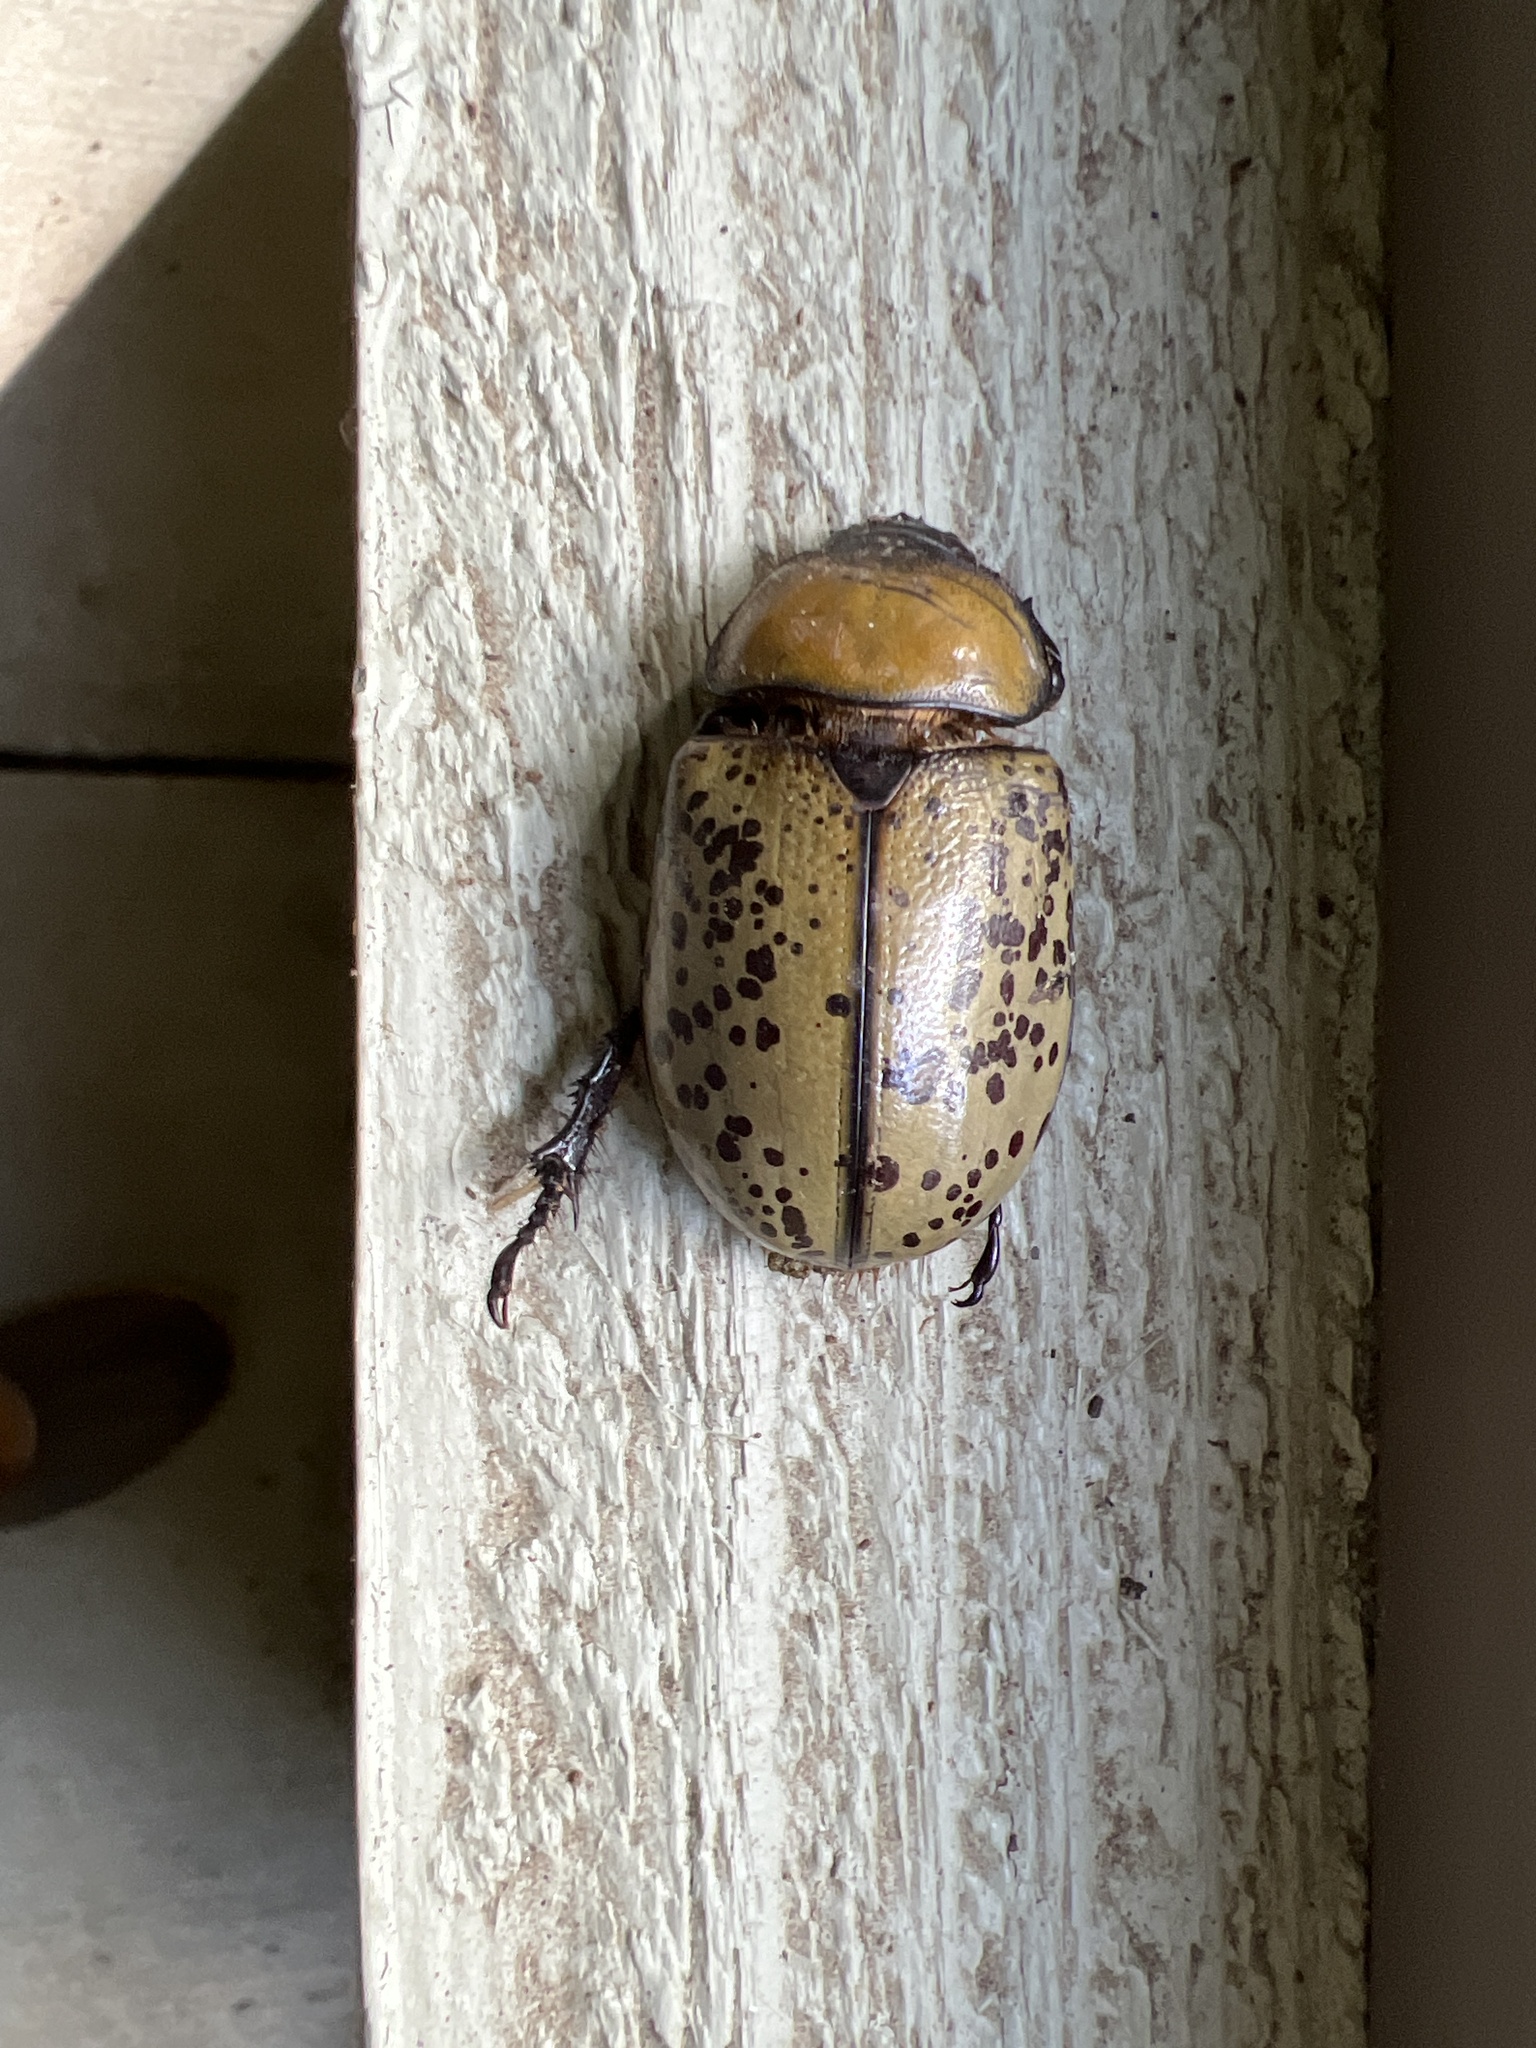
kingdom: Animalia
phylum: Arthropoda
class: Insecta
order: Coleoptera
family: Scarabaeidae
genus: Dynastes
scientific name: Dynastes tityus
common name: Eastern hercules beetle
